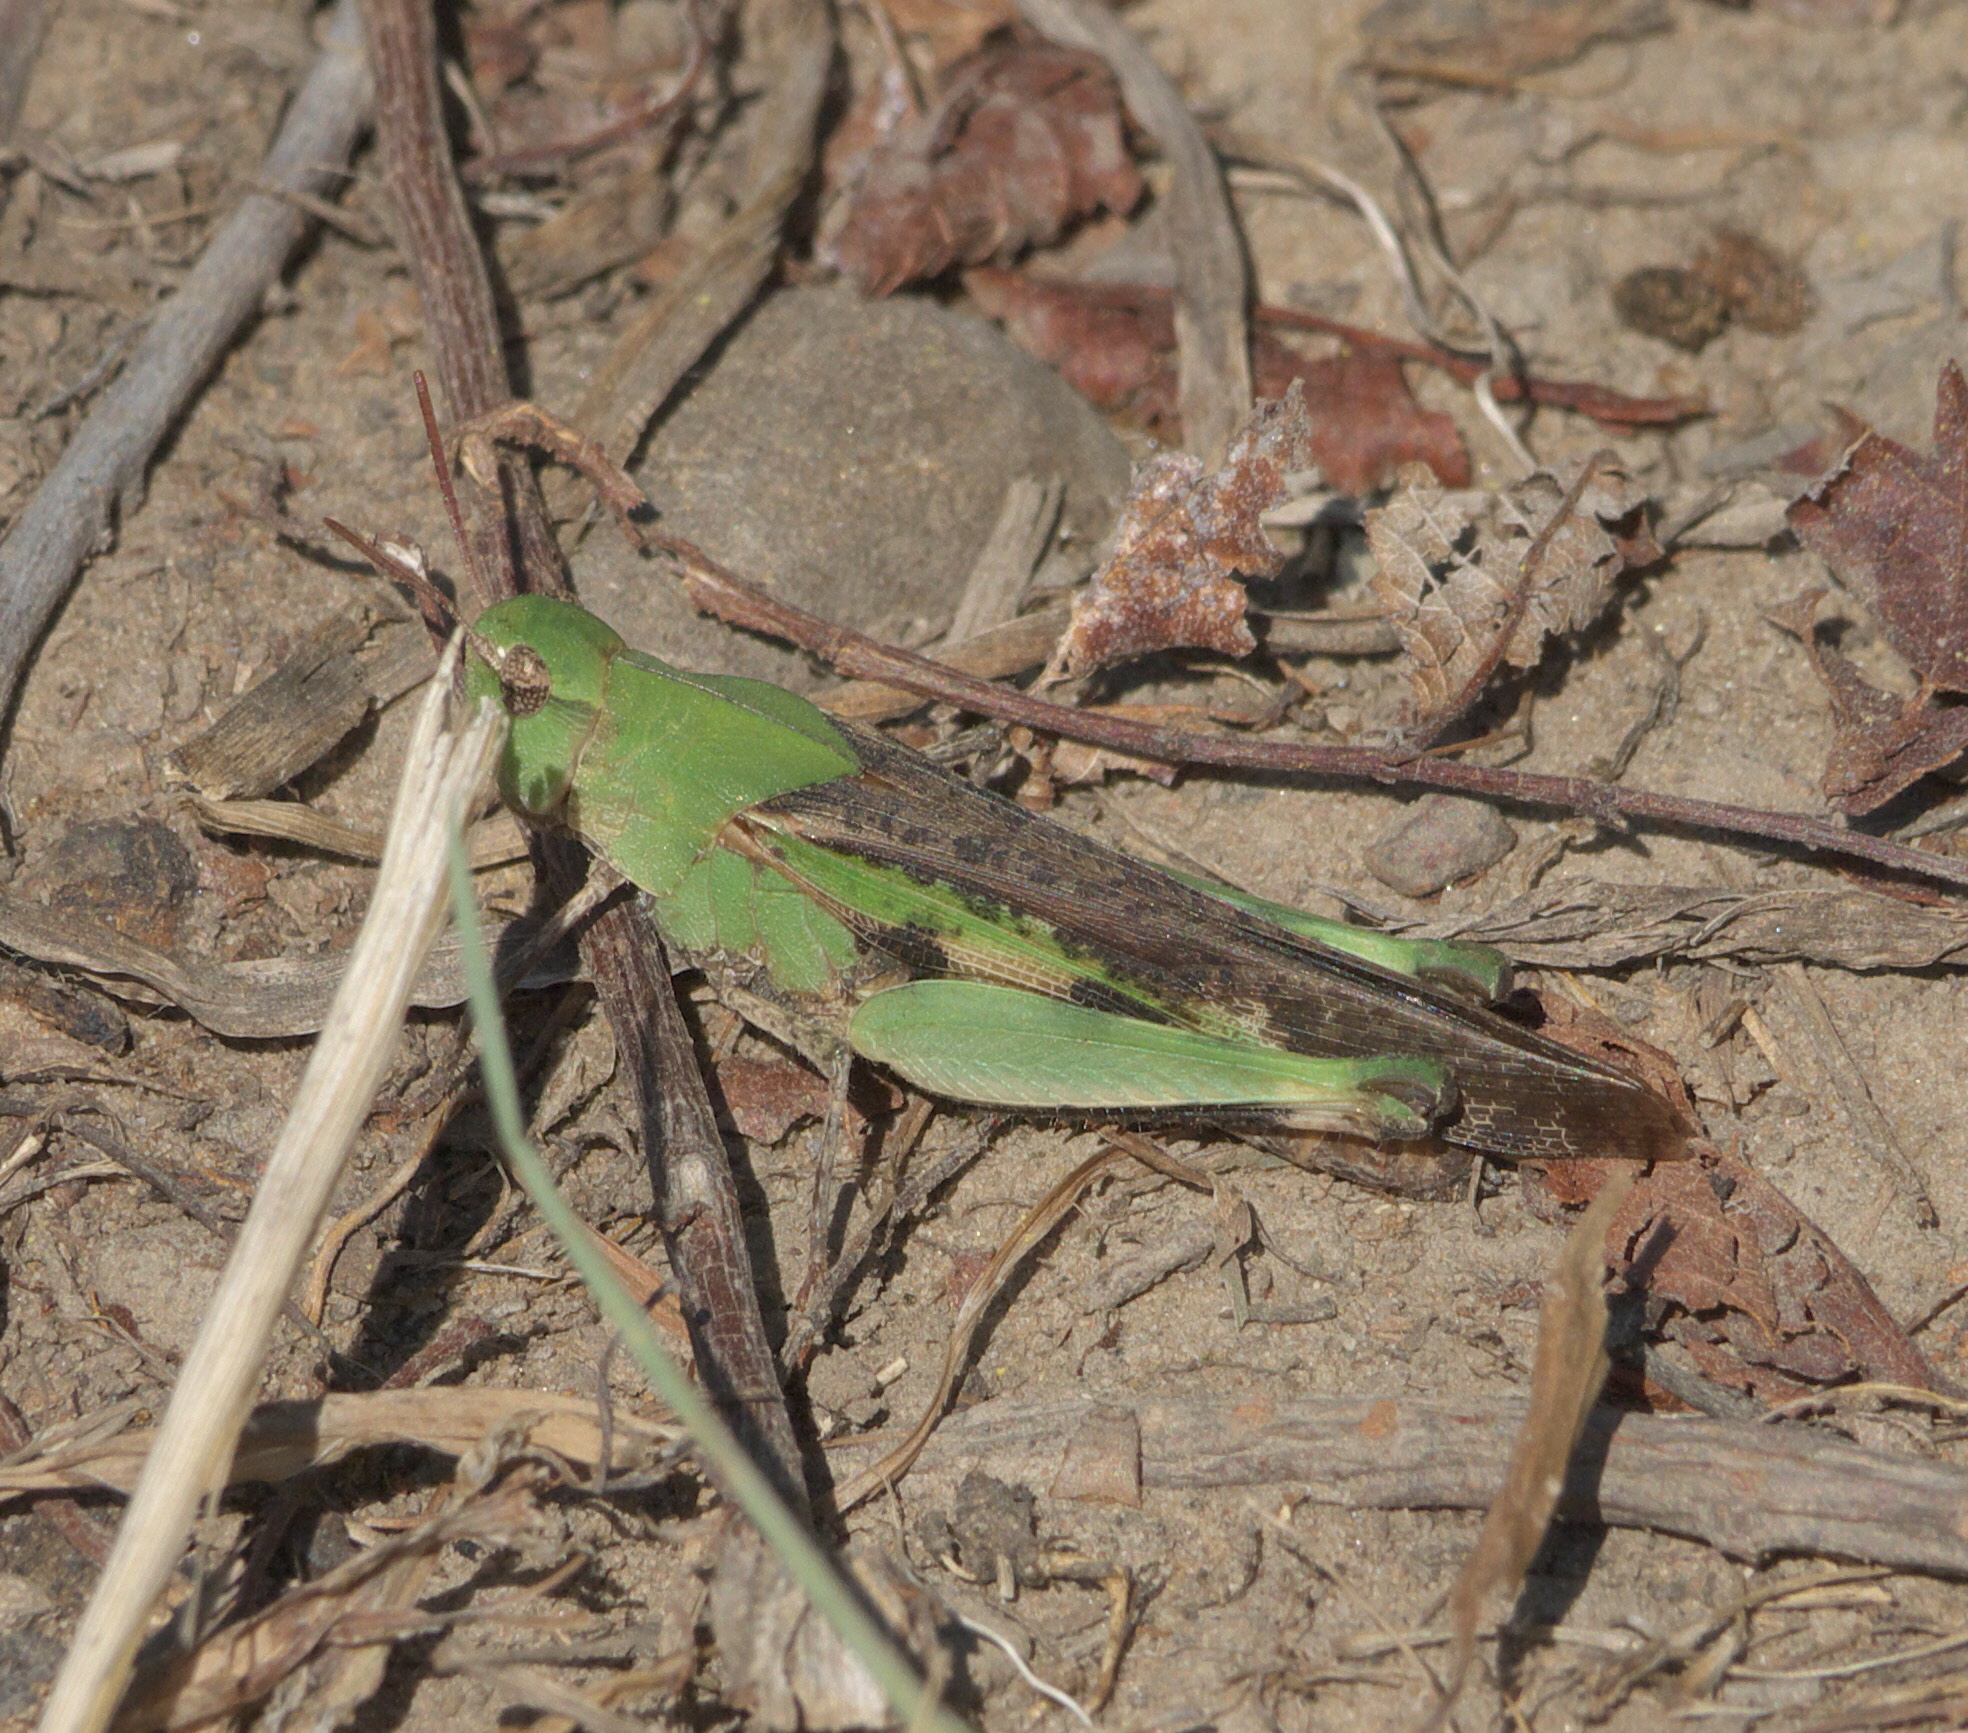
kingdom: Animalia
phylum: Arthropoda
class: Insecta
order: Orthoptera
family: Acrididae
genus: Chortophaga
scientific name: Chortophaga viridifasciata
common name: Green-striped grasshopper
